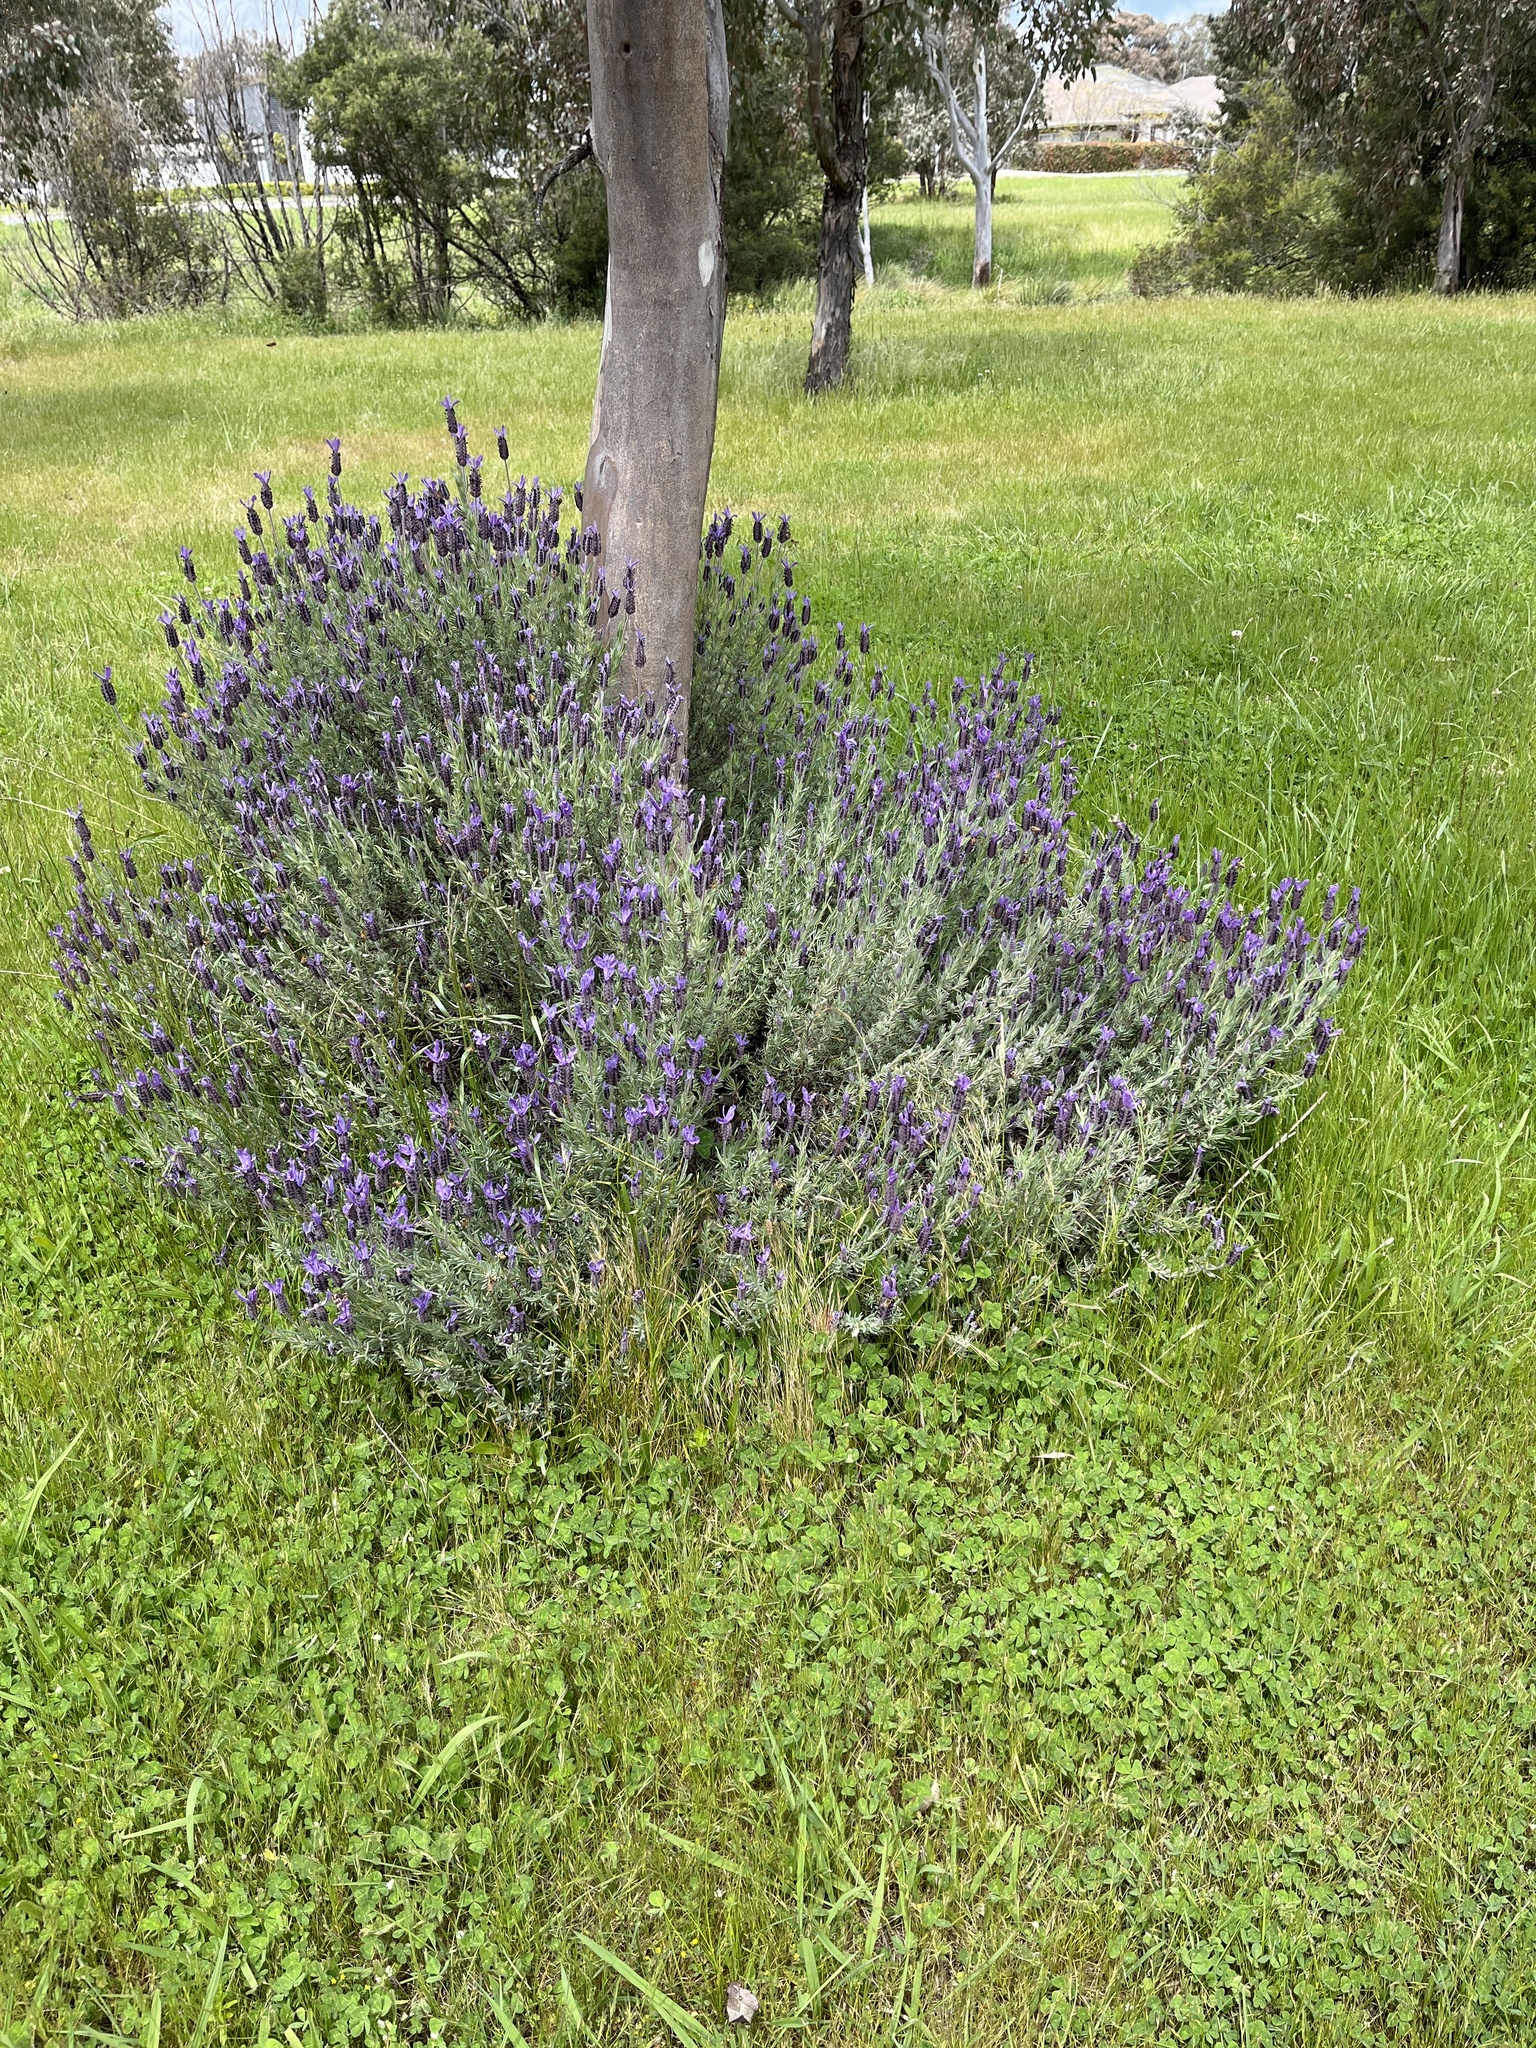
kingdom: Plantae
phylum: Tracheophyta
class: Magnoliopsida
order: Lamiales
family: Lamiaceae
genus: Lavandula
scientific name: Lavandula stoechas
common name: French lavender
